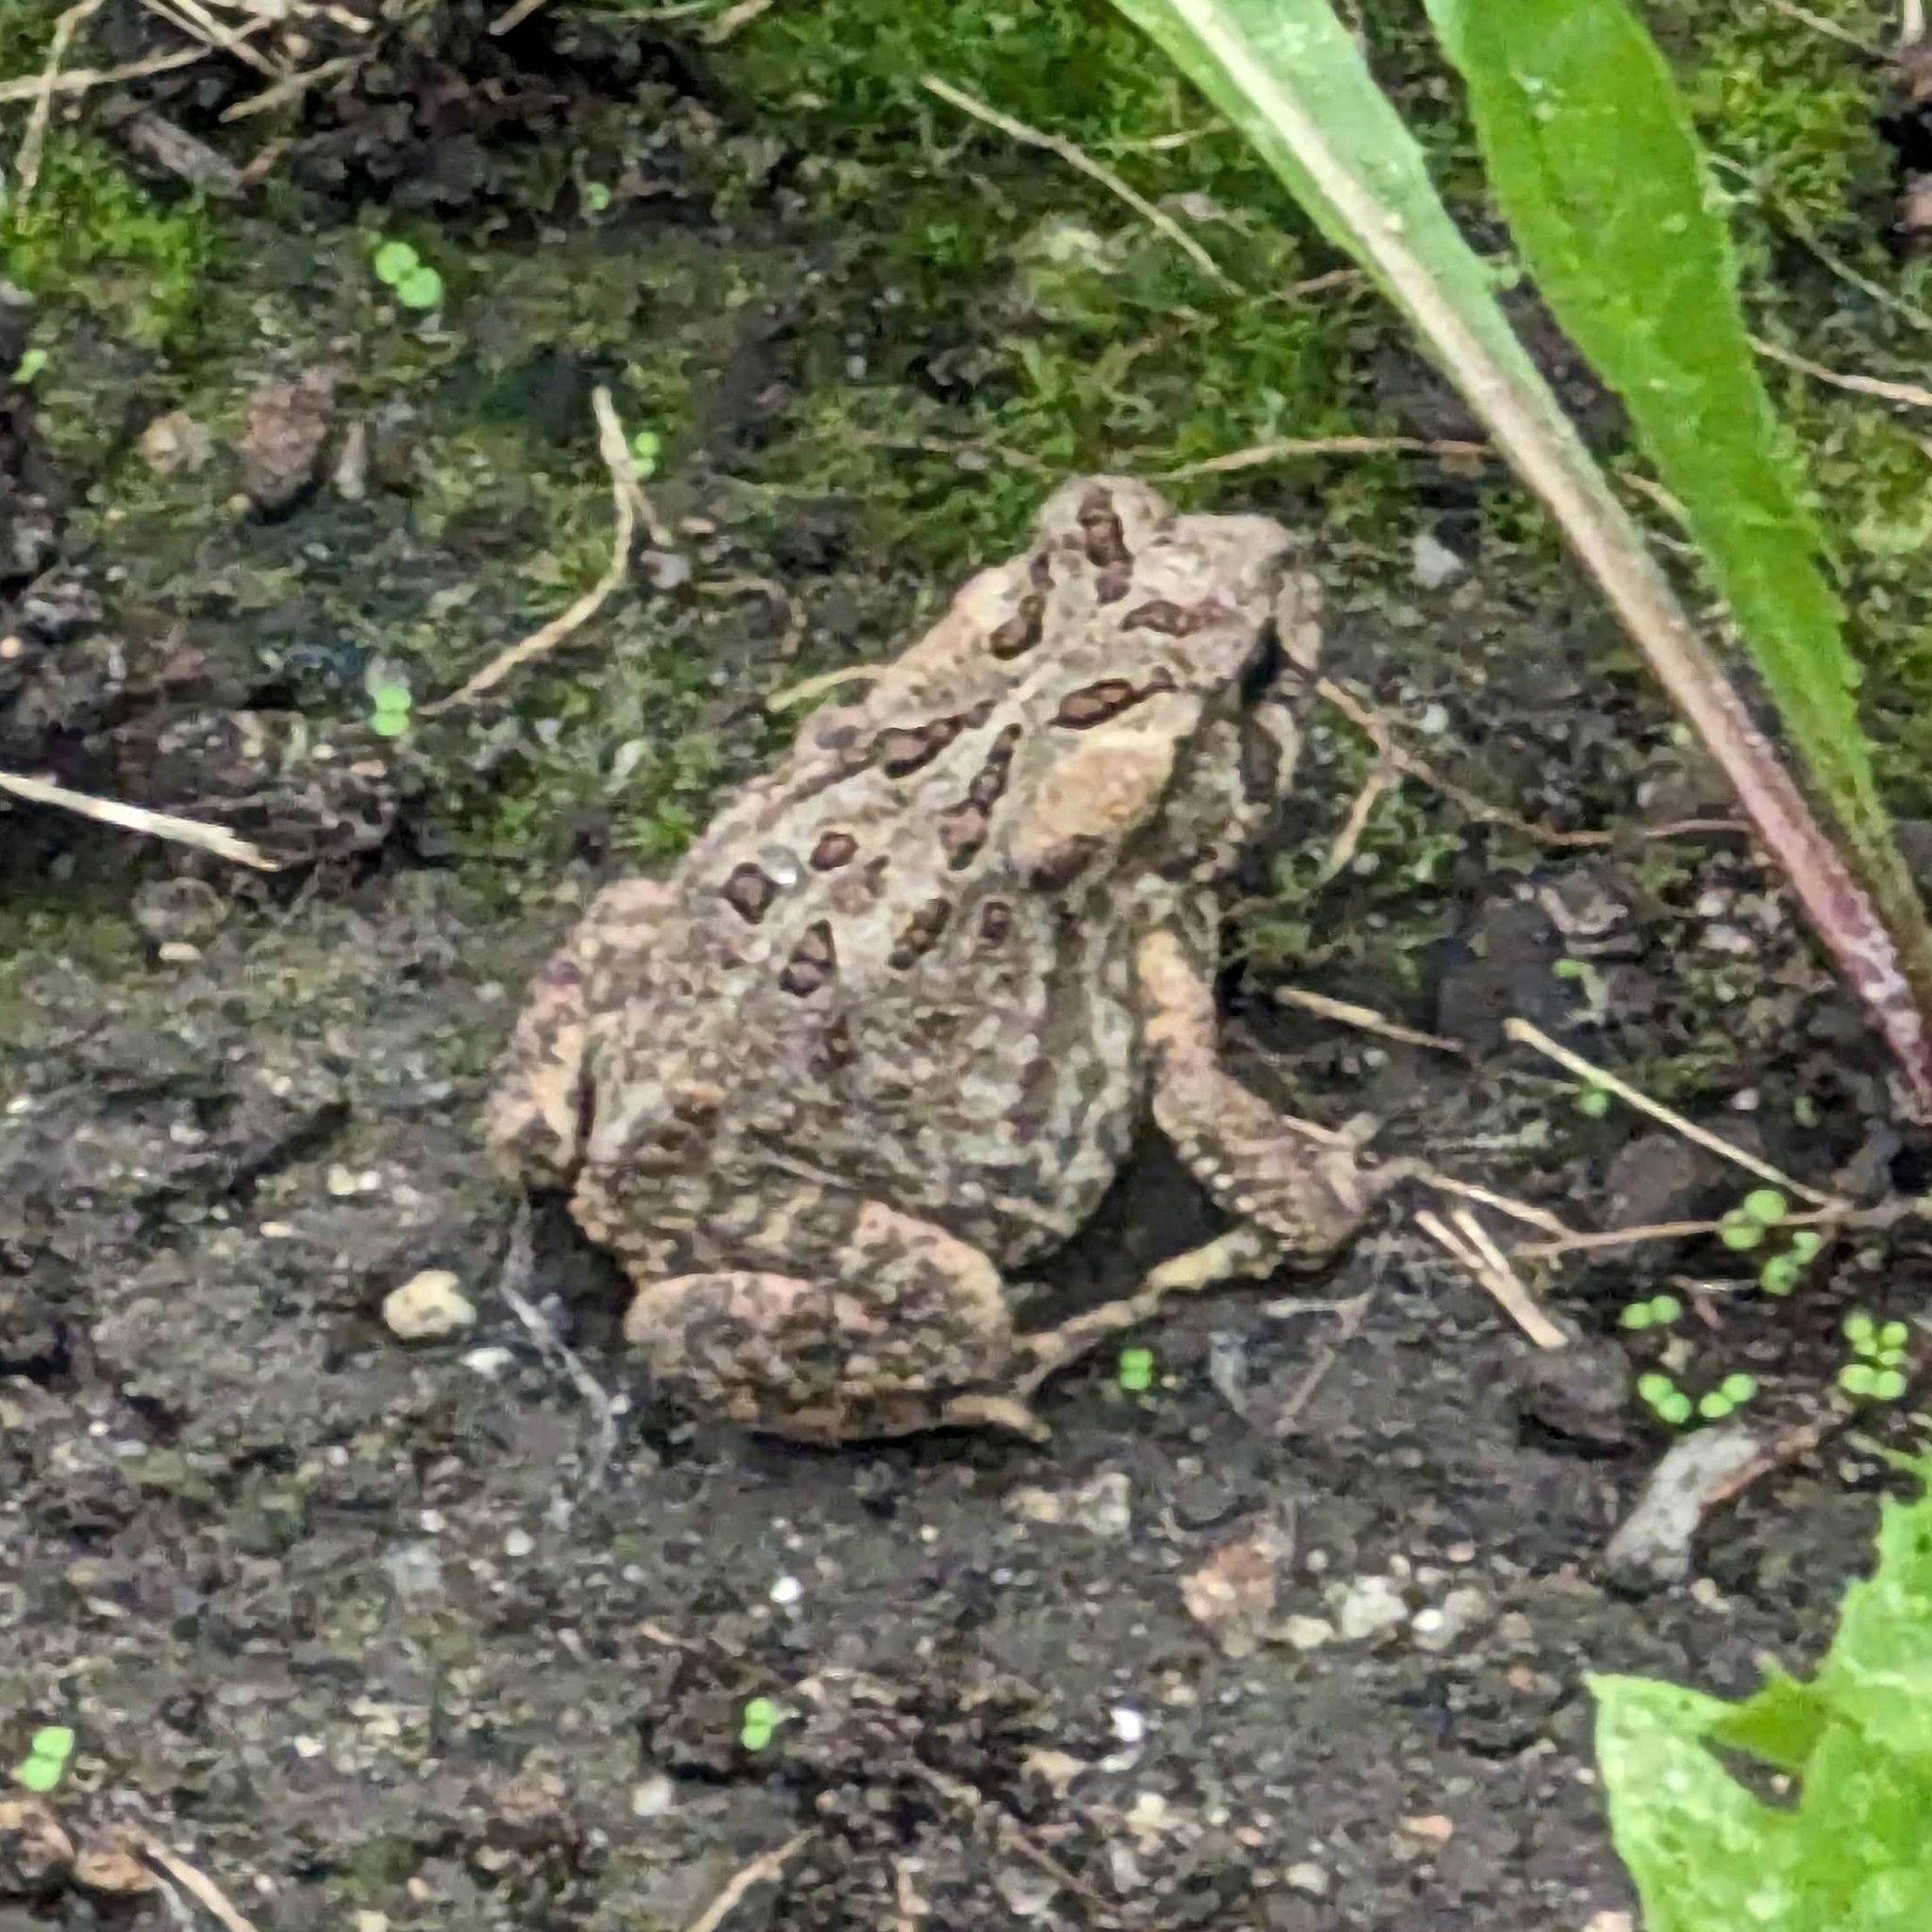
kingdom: Animalia
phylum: Chordata
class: Amphibia
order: Anura
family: Bufonidae
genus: Anaxyrus
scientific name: Anaxyrus americanus
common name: American toad
